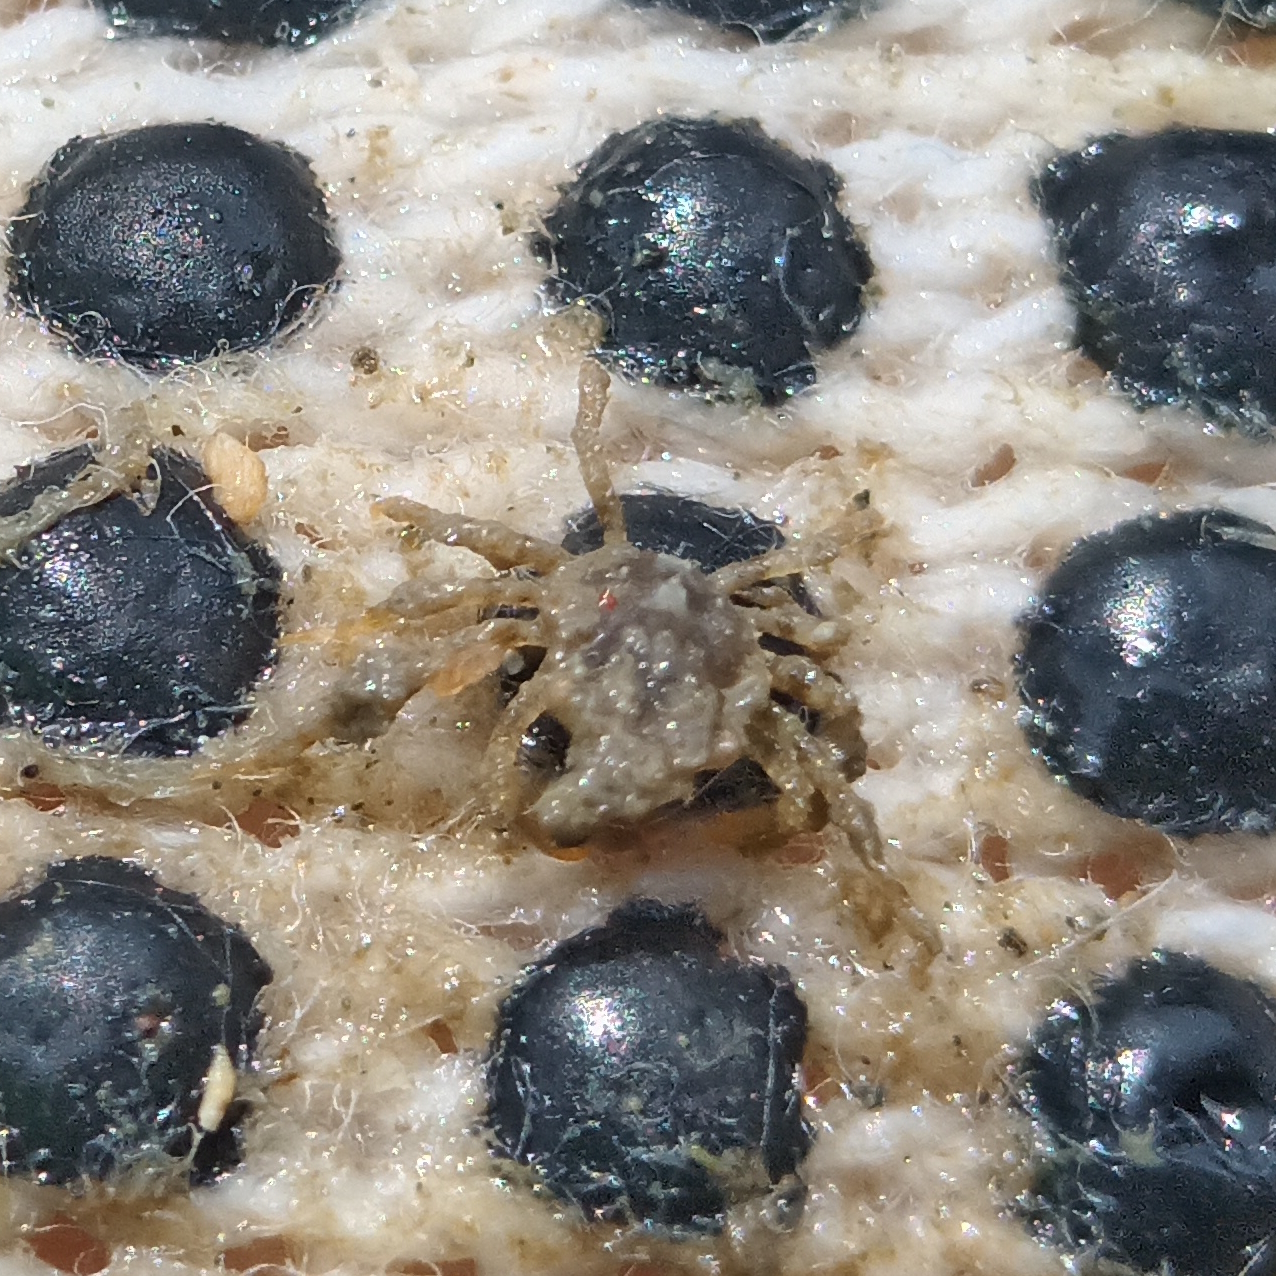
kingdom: Animalia
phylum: Arthropoda
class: Malacostraca
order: Decapoda
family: Epialtidae
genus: Epialtus
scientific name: Epialtus brasiliensis
